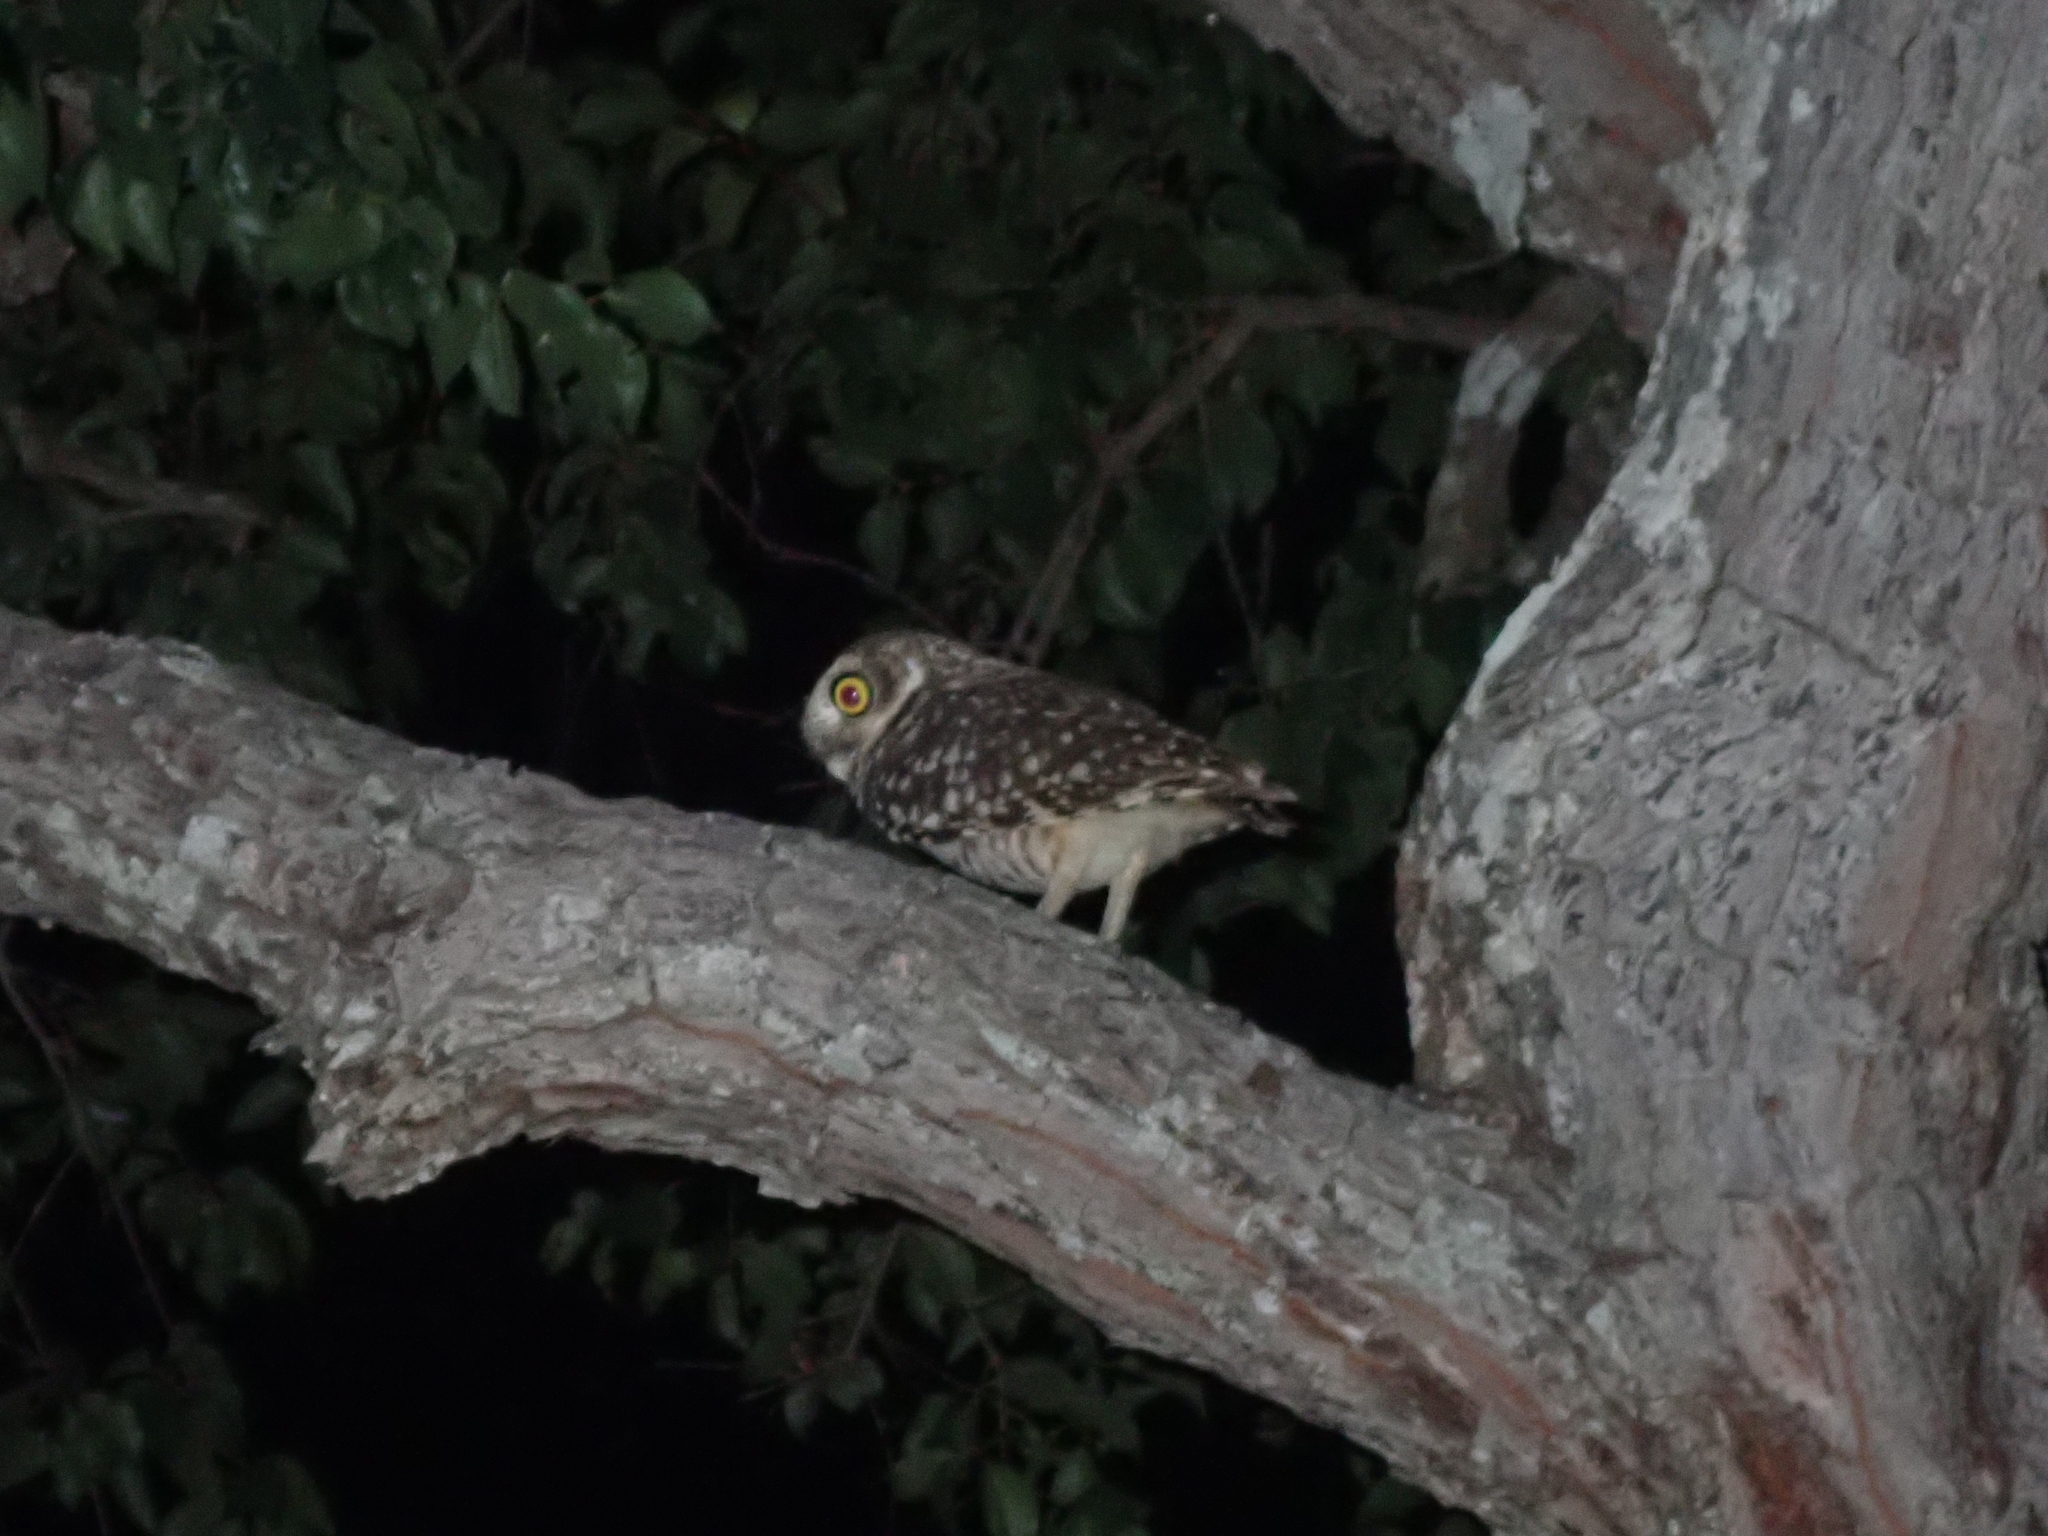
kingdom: Animalia
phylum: Chordata
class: Aves
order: Strigiformes
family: Strigidae
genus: Athene
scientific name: Athene cunicularia
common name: Burrowing owl
